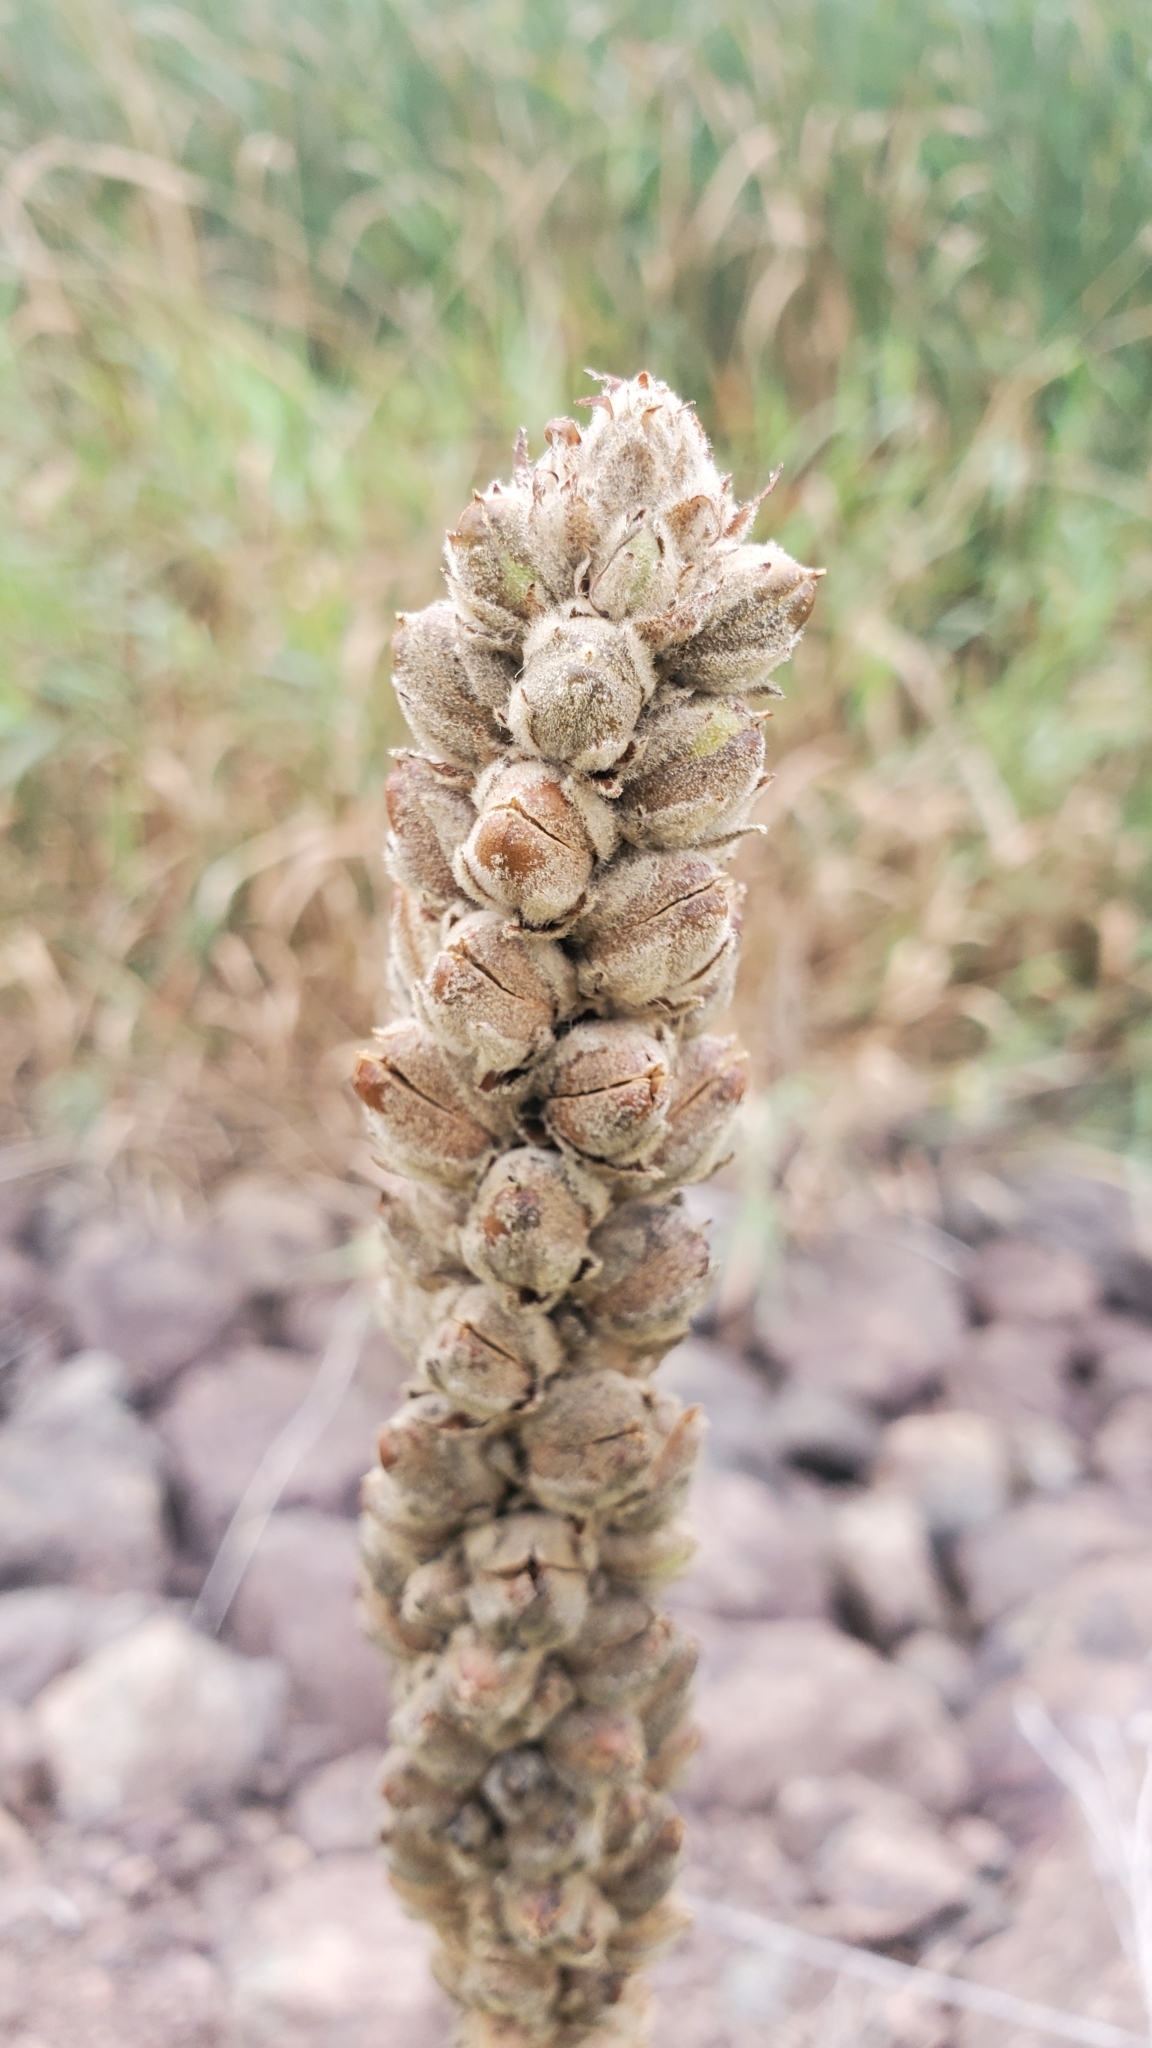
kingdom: Plantae
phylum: Tracheophyta
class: Magnoliopsida
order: Lamiales
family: Scrophulariaceae
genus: Verbascum
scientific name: Verbascum thapsus
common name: Common mullein
